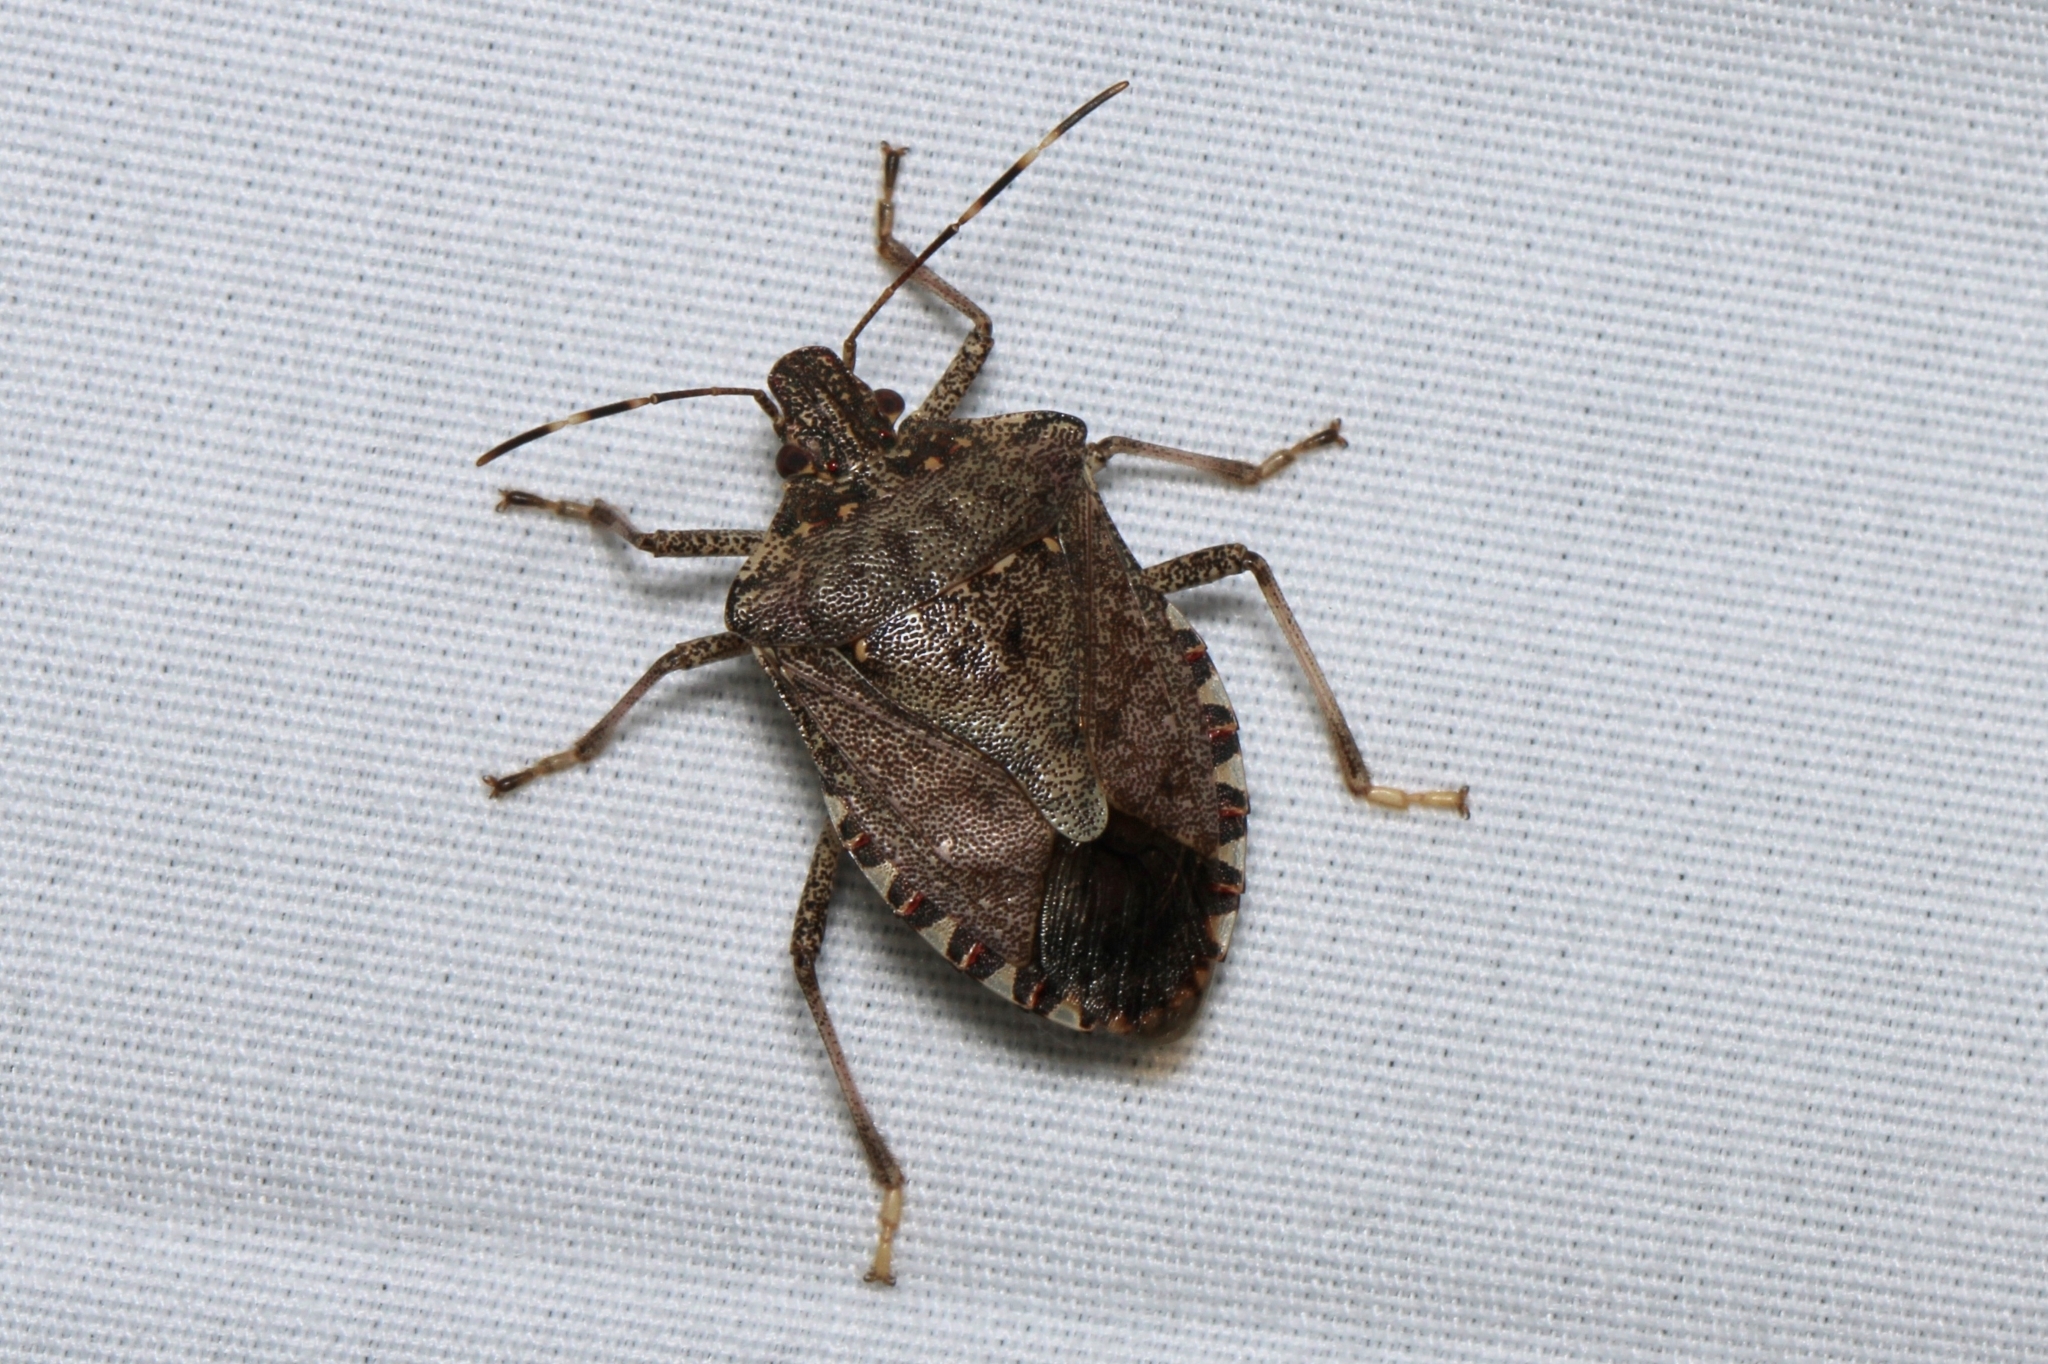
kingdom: Animalia
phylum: Arthropoda
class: Insecta
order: Hemiptera
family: Pentatomidae
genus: Halyomorpha
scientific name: Halyomorpha halys
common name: Brown marmorated stink bug
